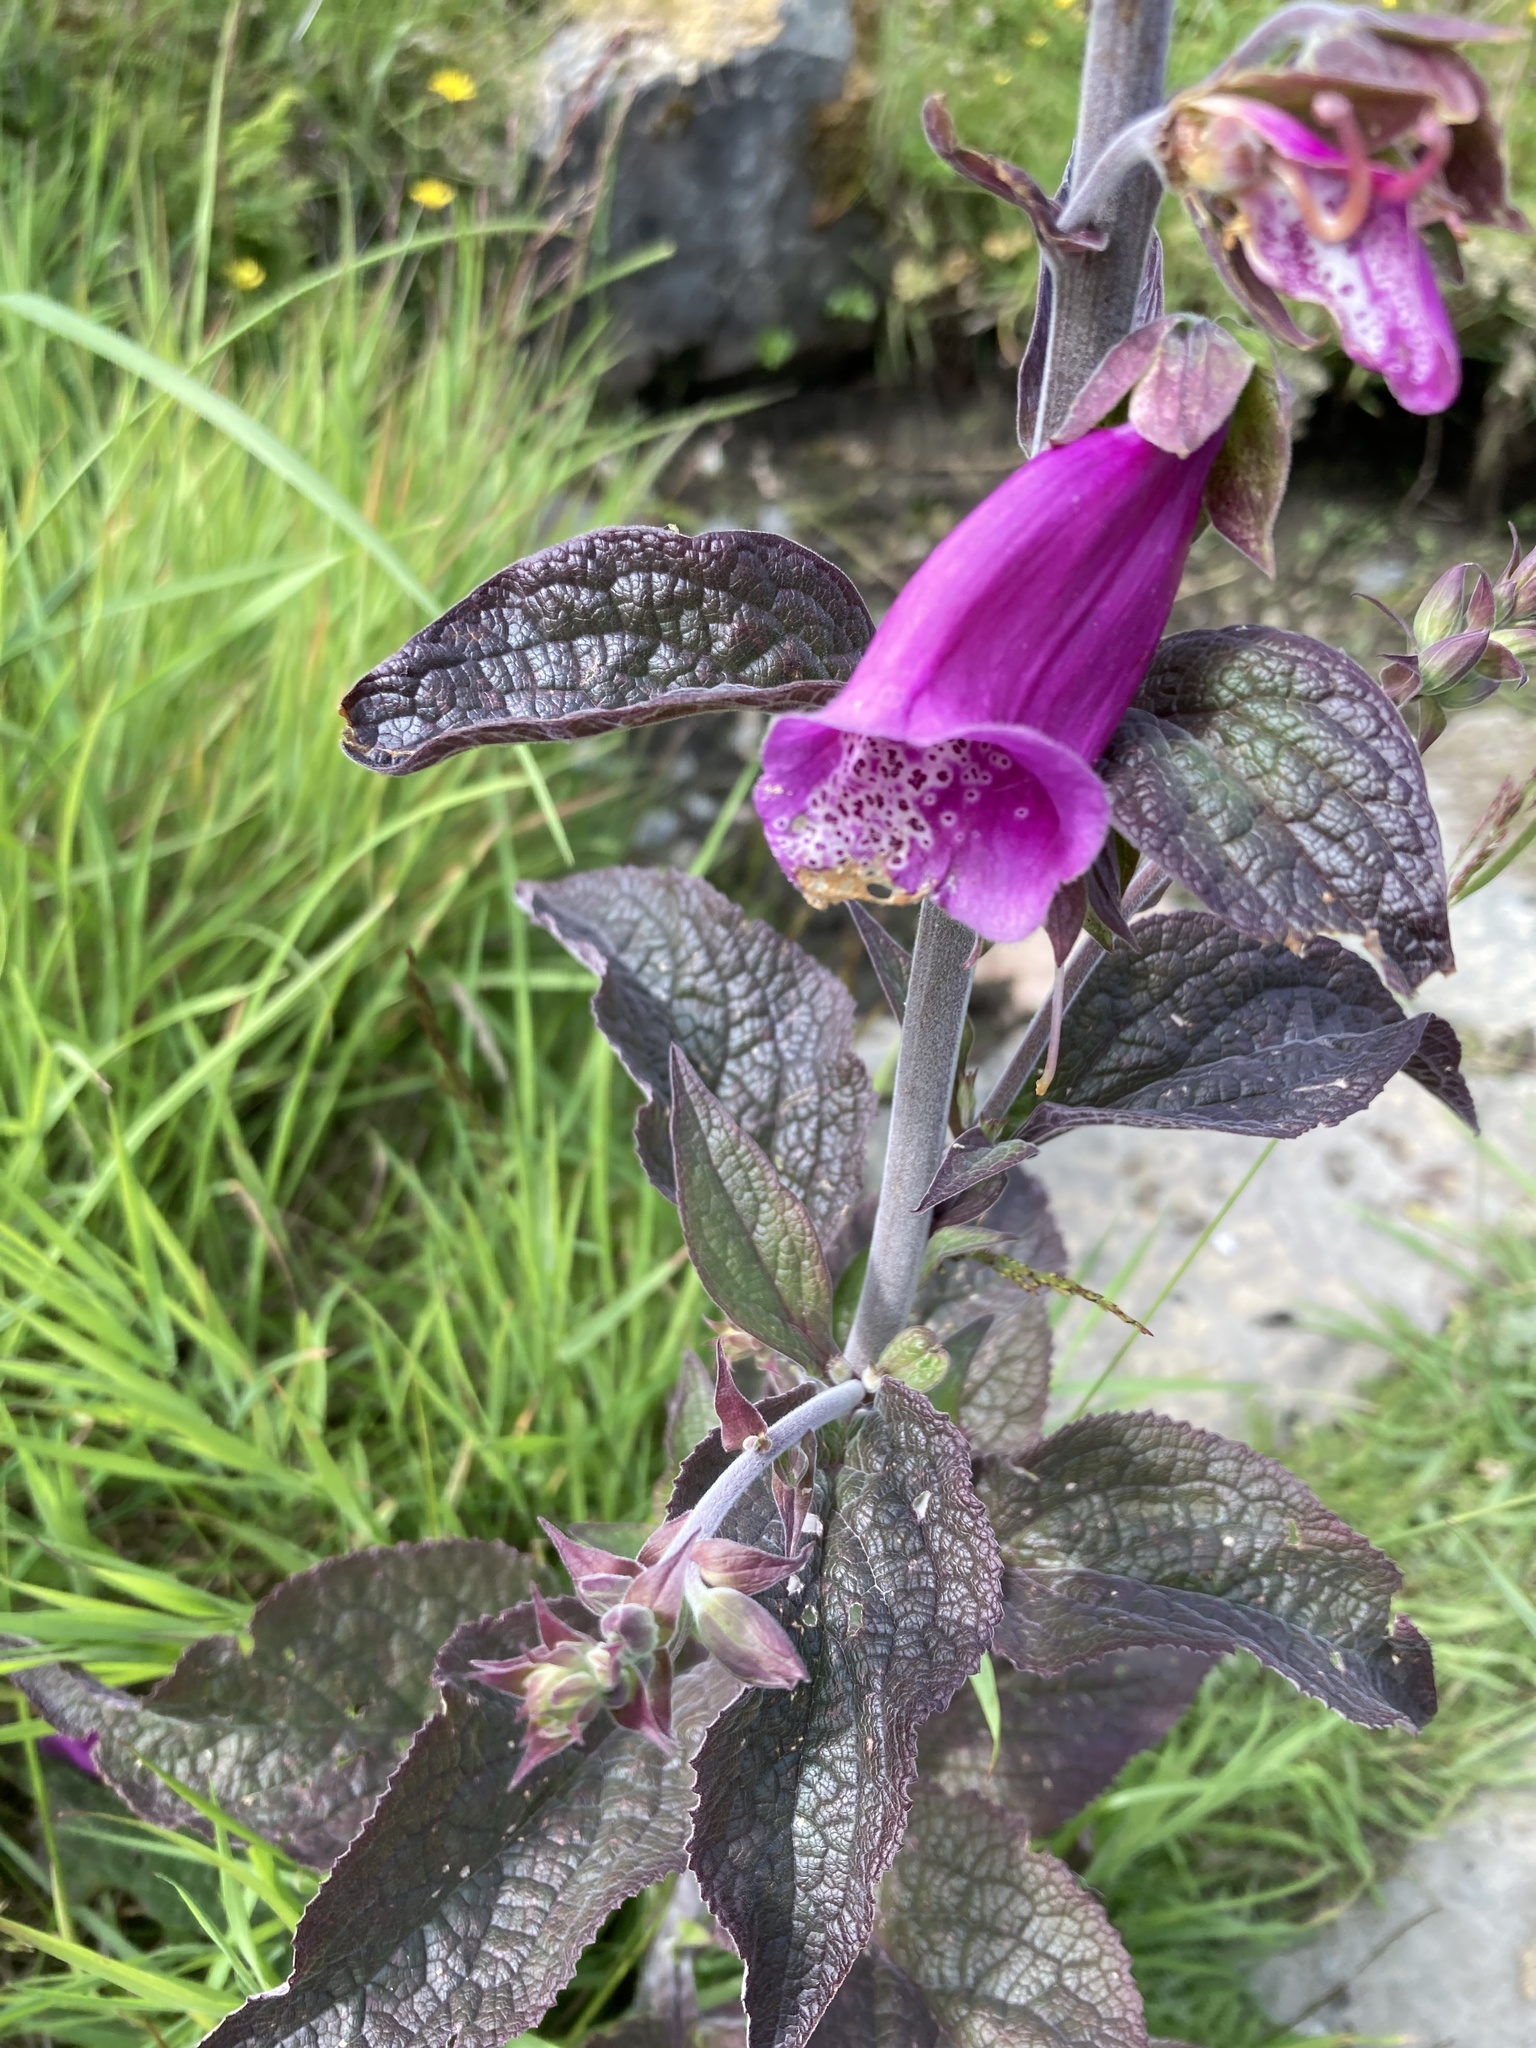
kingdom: Plantae
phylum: Tracheophyta
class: Magnoliopsida
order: Lamiales
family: Plantaginaceae
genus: Digitalis
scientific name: Digitalis purpurea
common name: Foxglove
